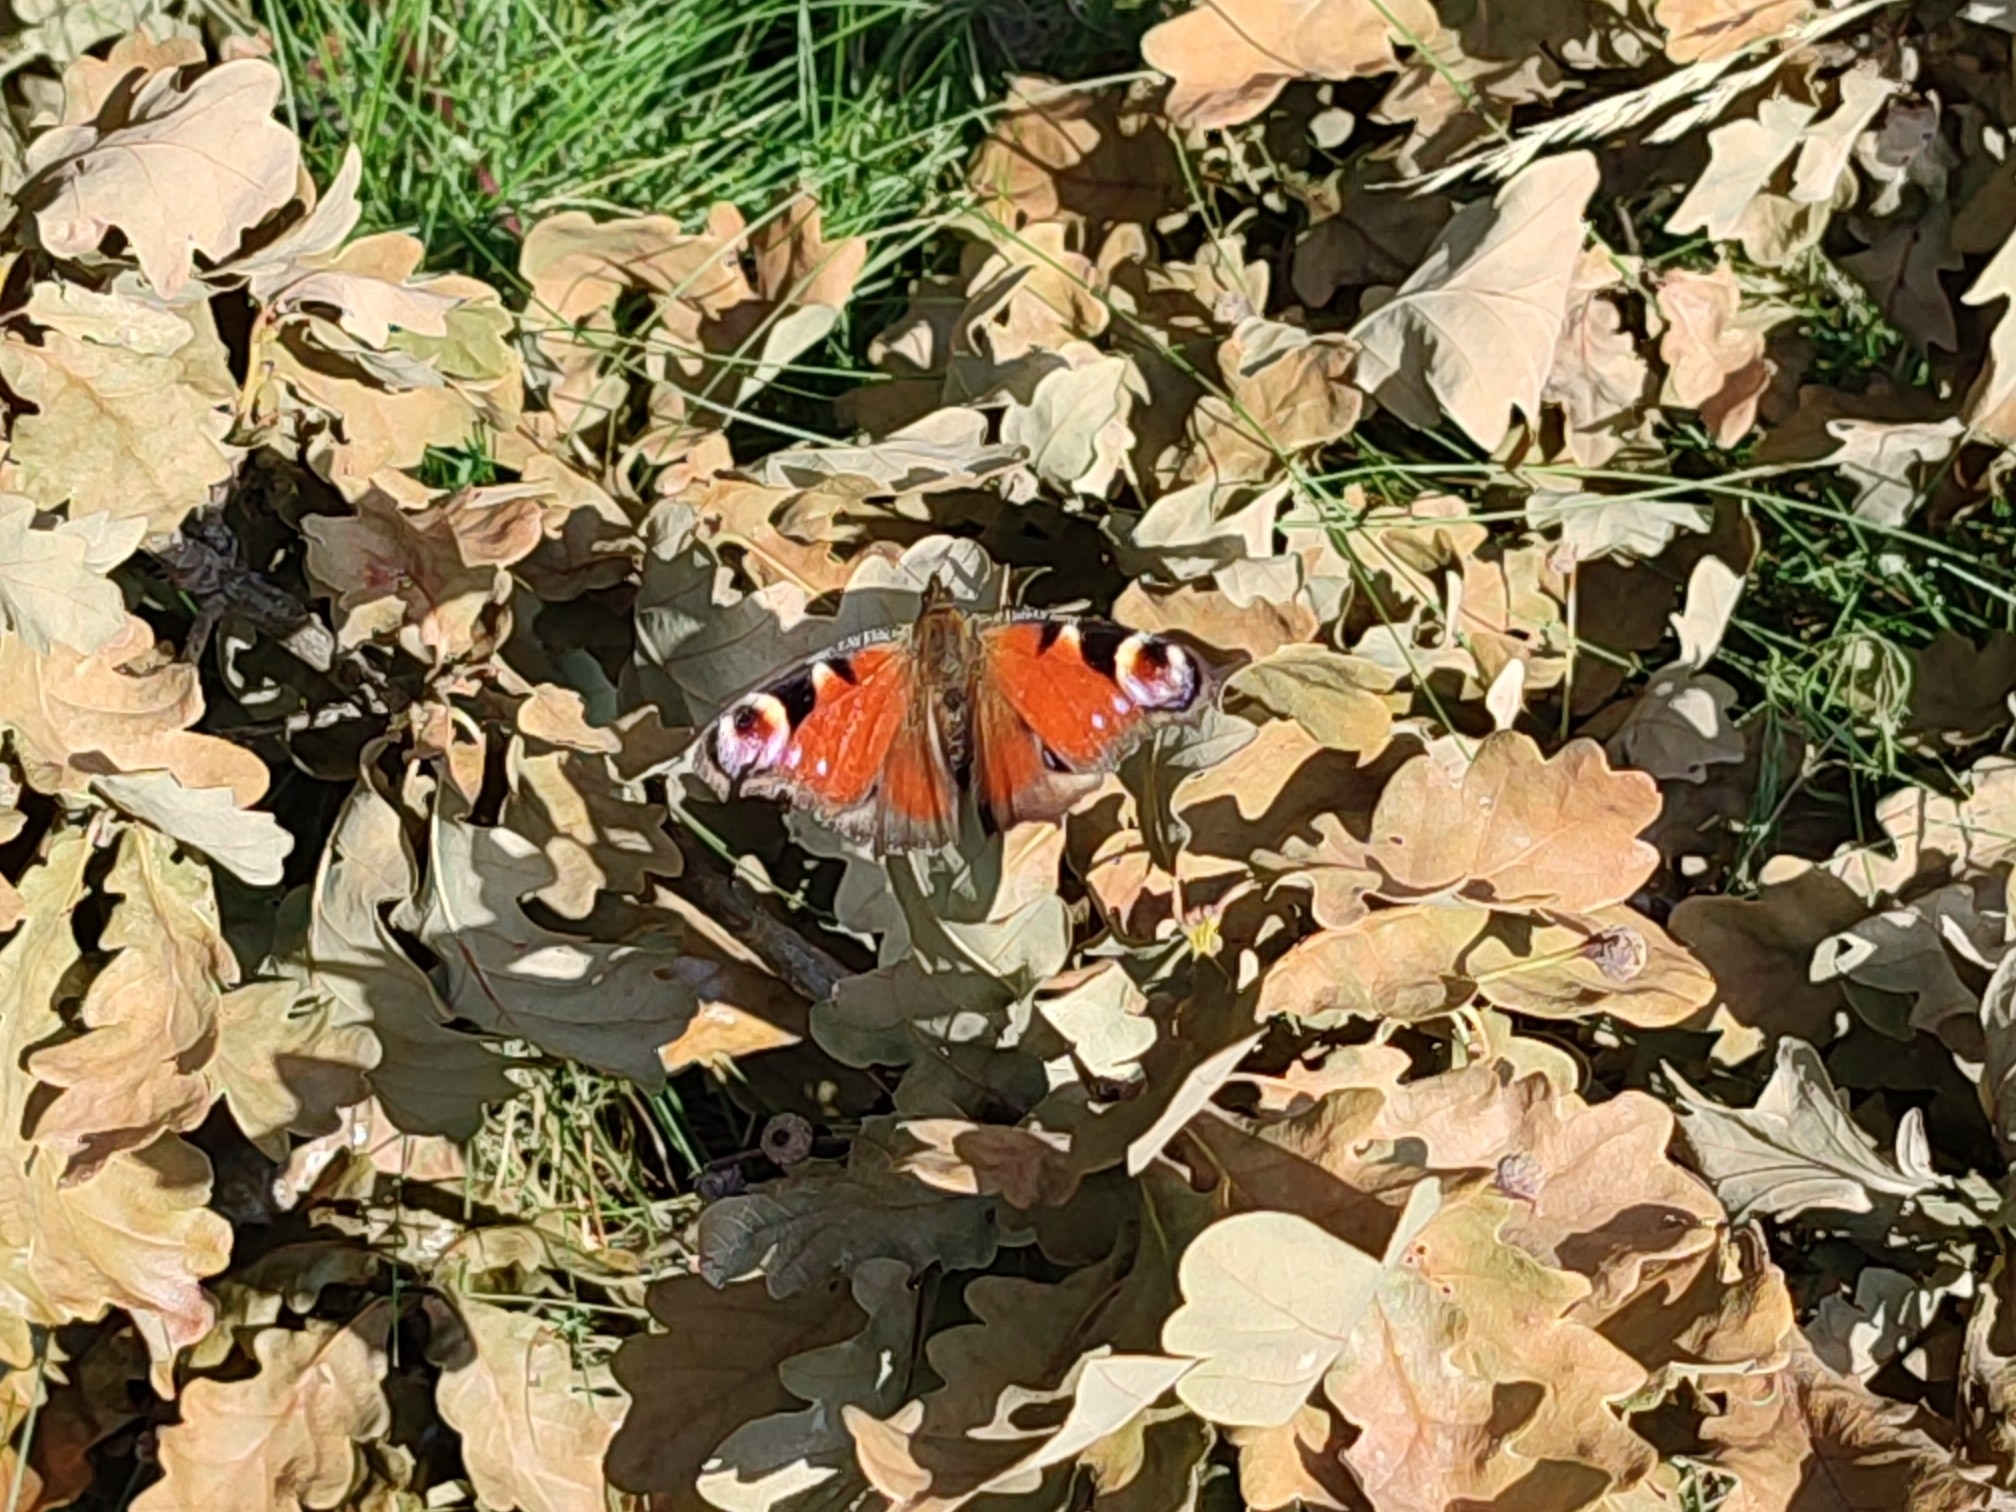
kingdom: Animalia
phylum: Arthropoda
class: Insecta
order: Lepidoptera
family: Nymphalidae
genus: Aglais
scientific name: Aglais io
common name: Peacock
